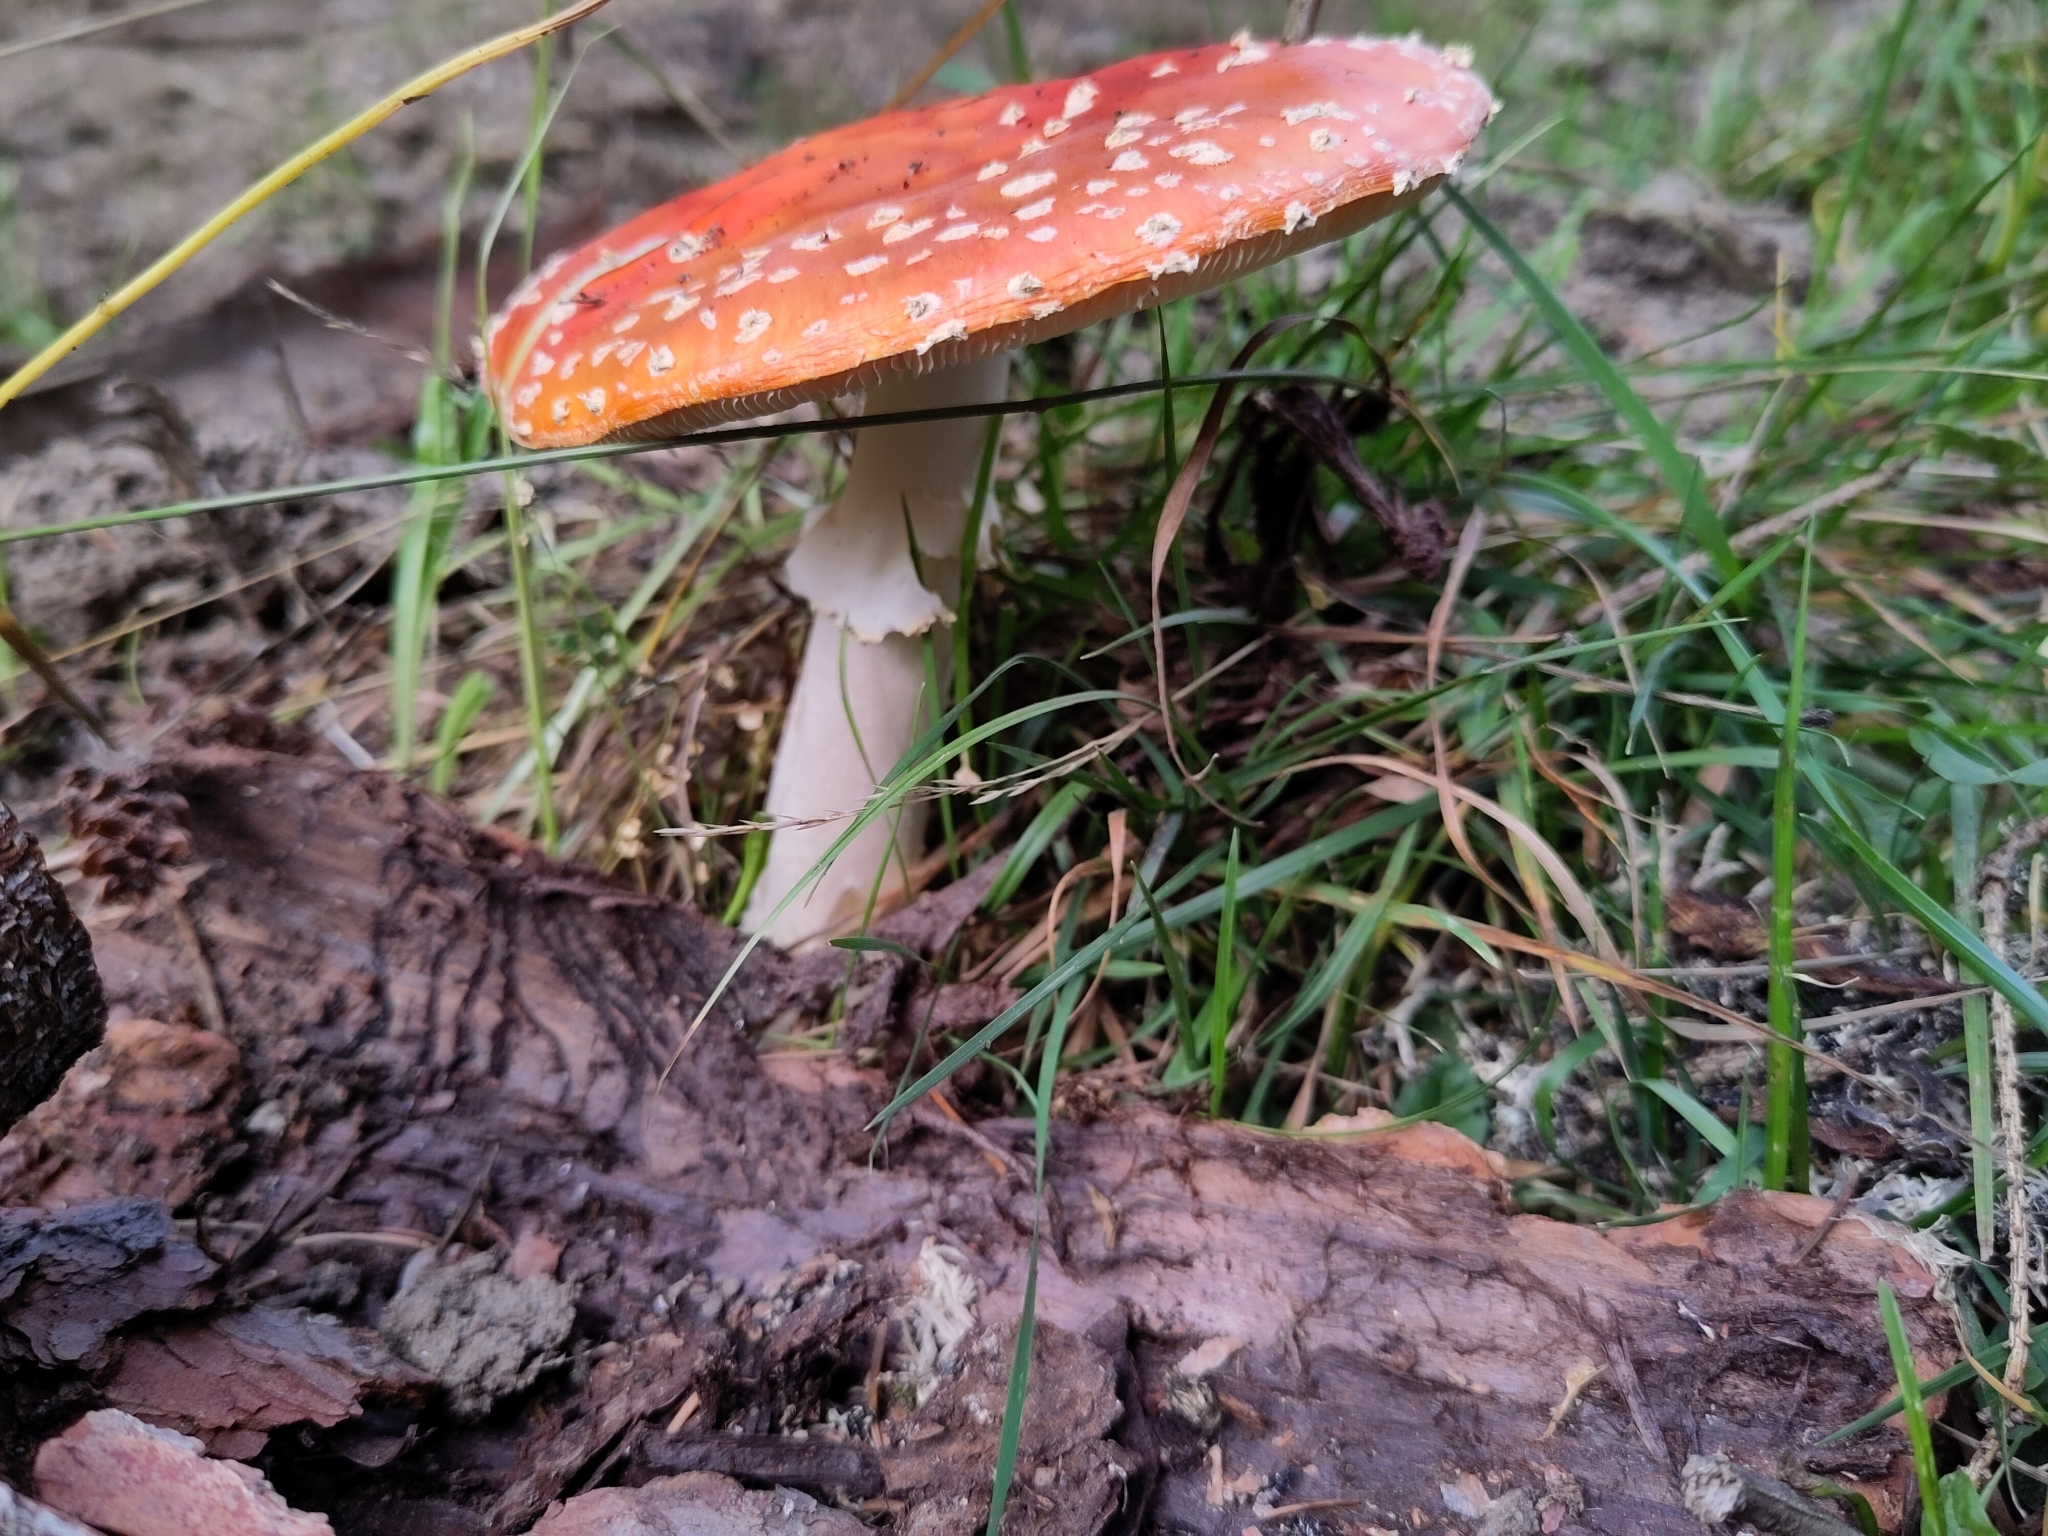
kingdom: Fungi
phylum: Basidiomycota
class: Agaricomycetes
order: Agaricales
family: Amanitaceae
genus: Amanita
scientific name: Amanita muscaria
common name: Fly agaric
